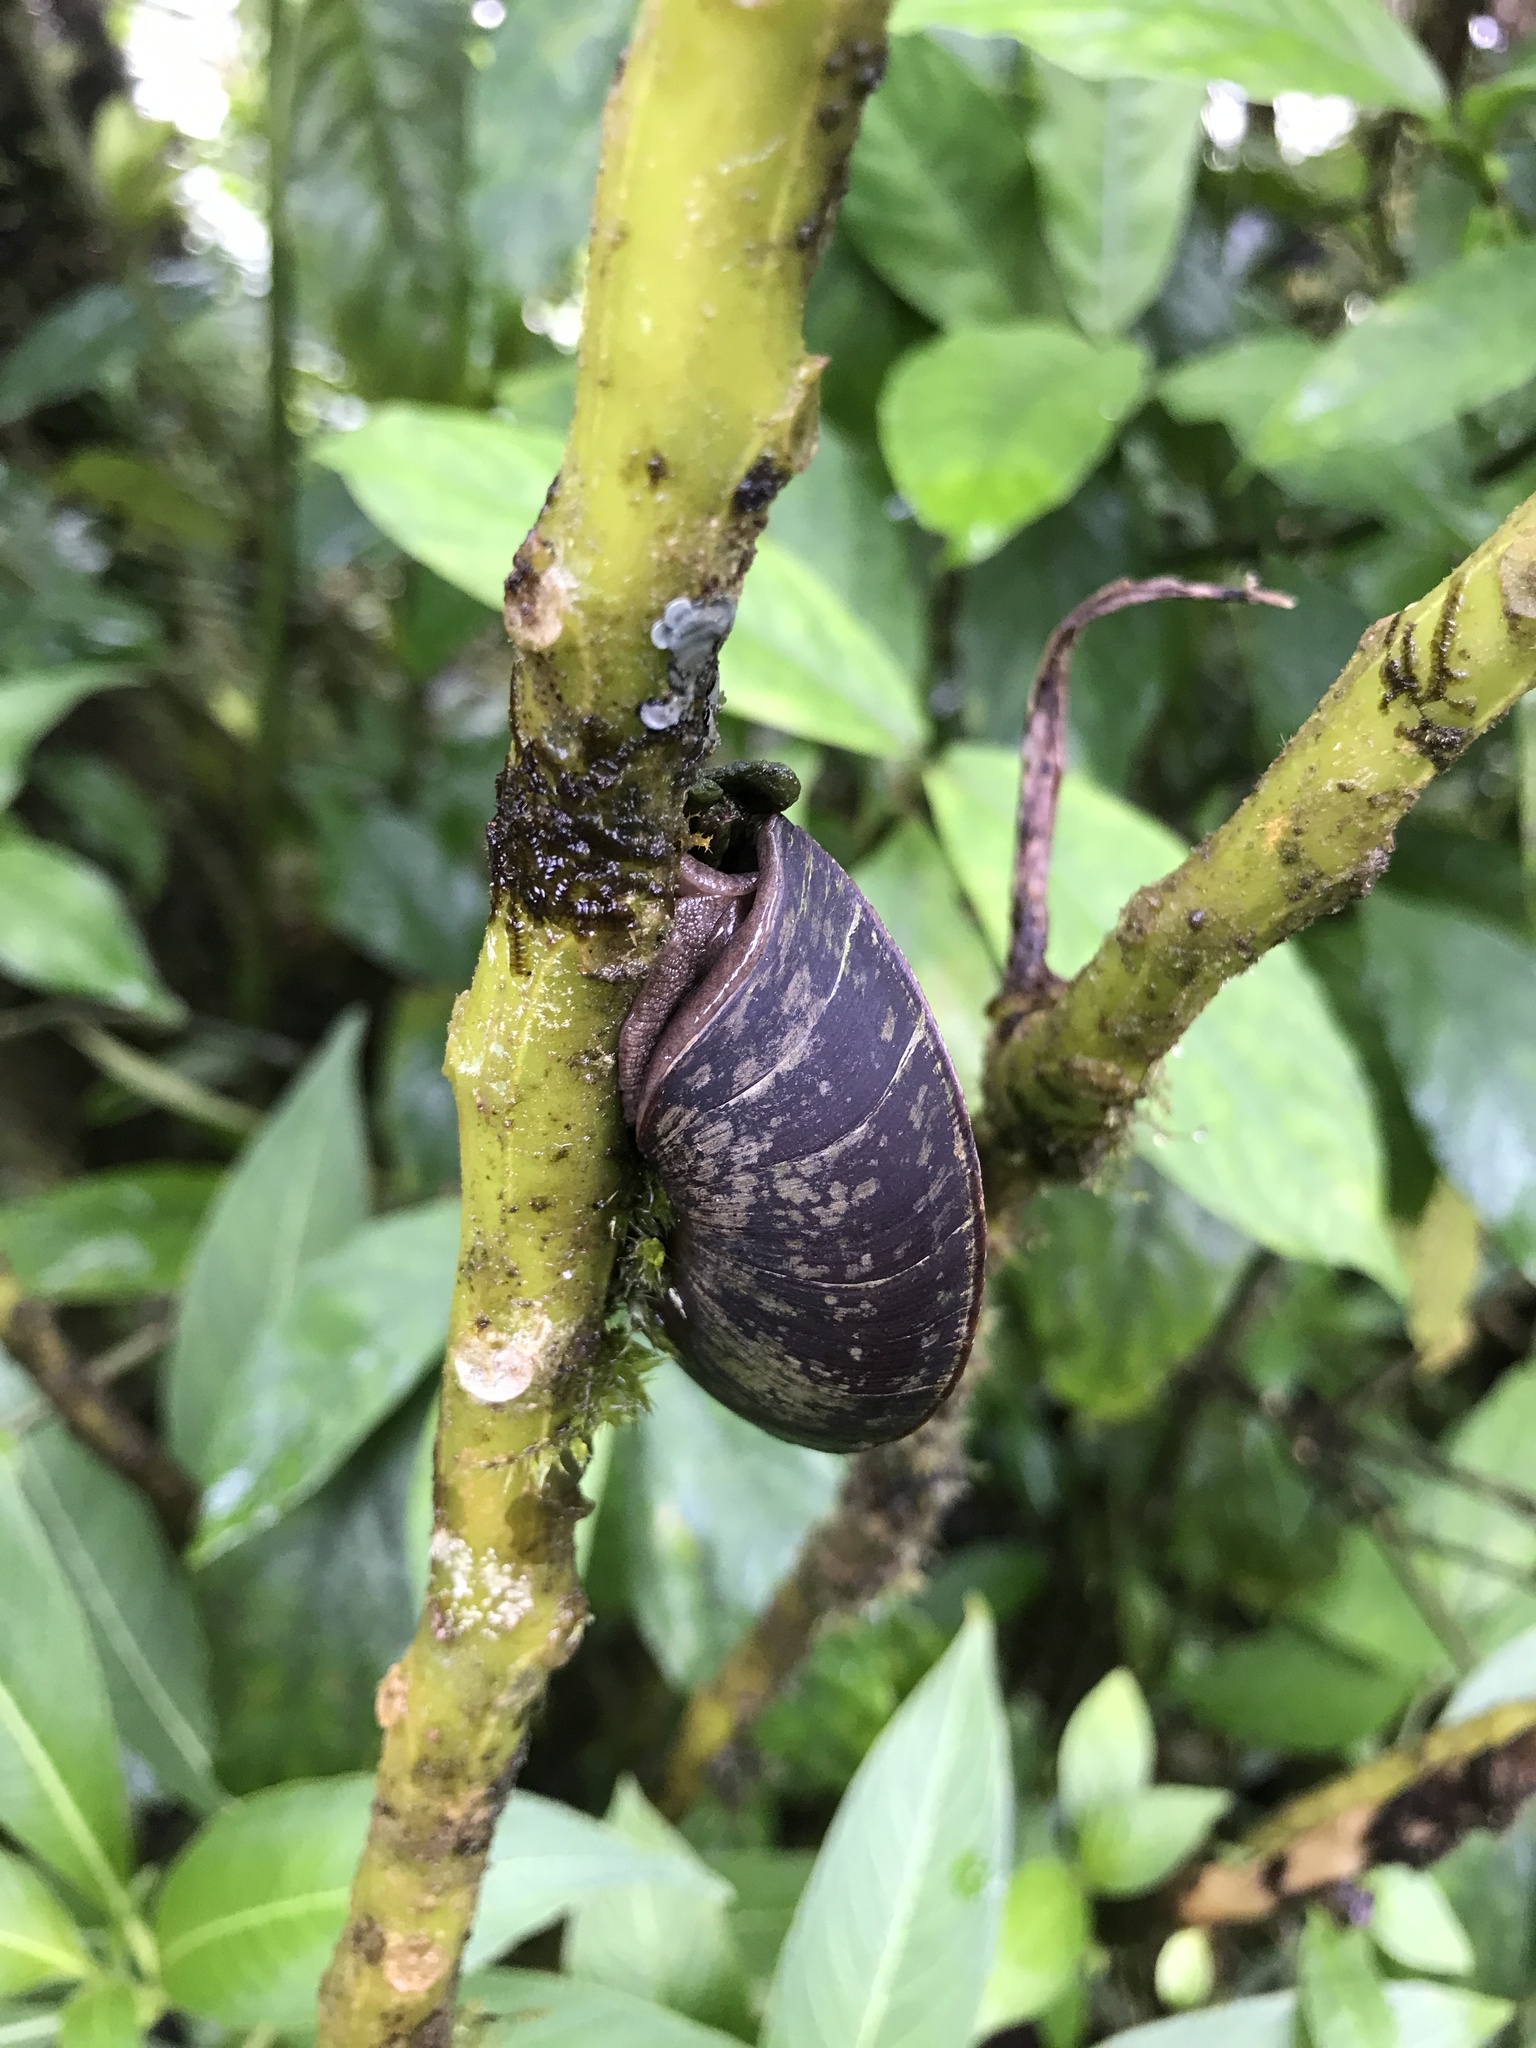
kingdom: Animalia
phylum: Mollusca
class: Gastropoda
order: Stylommatophora
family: Solaropsidae
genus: Caracolus
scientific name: Caracolus carocolla
